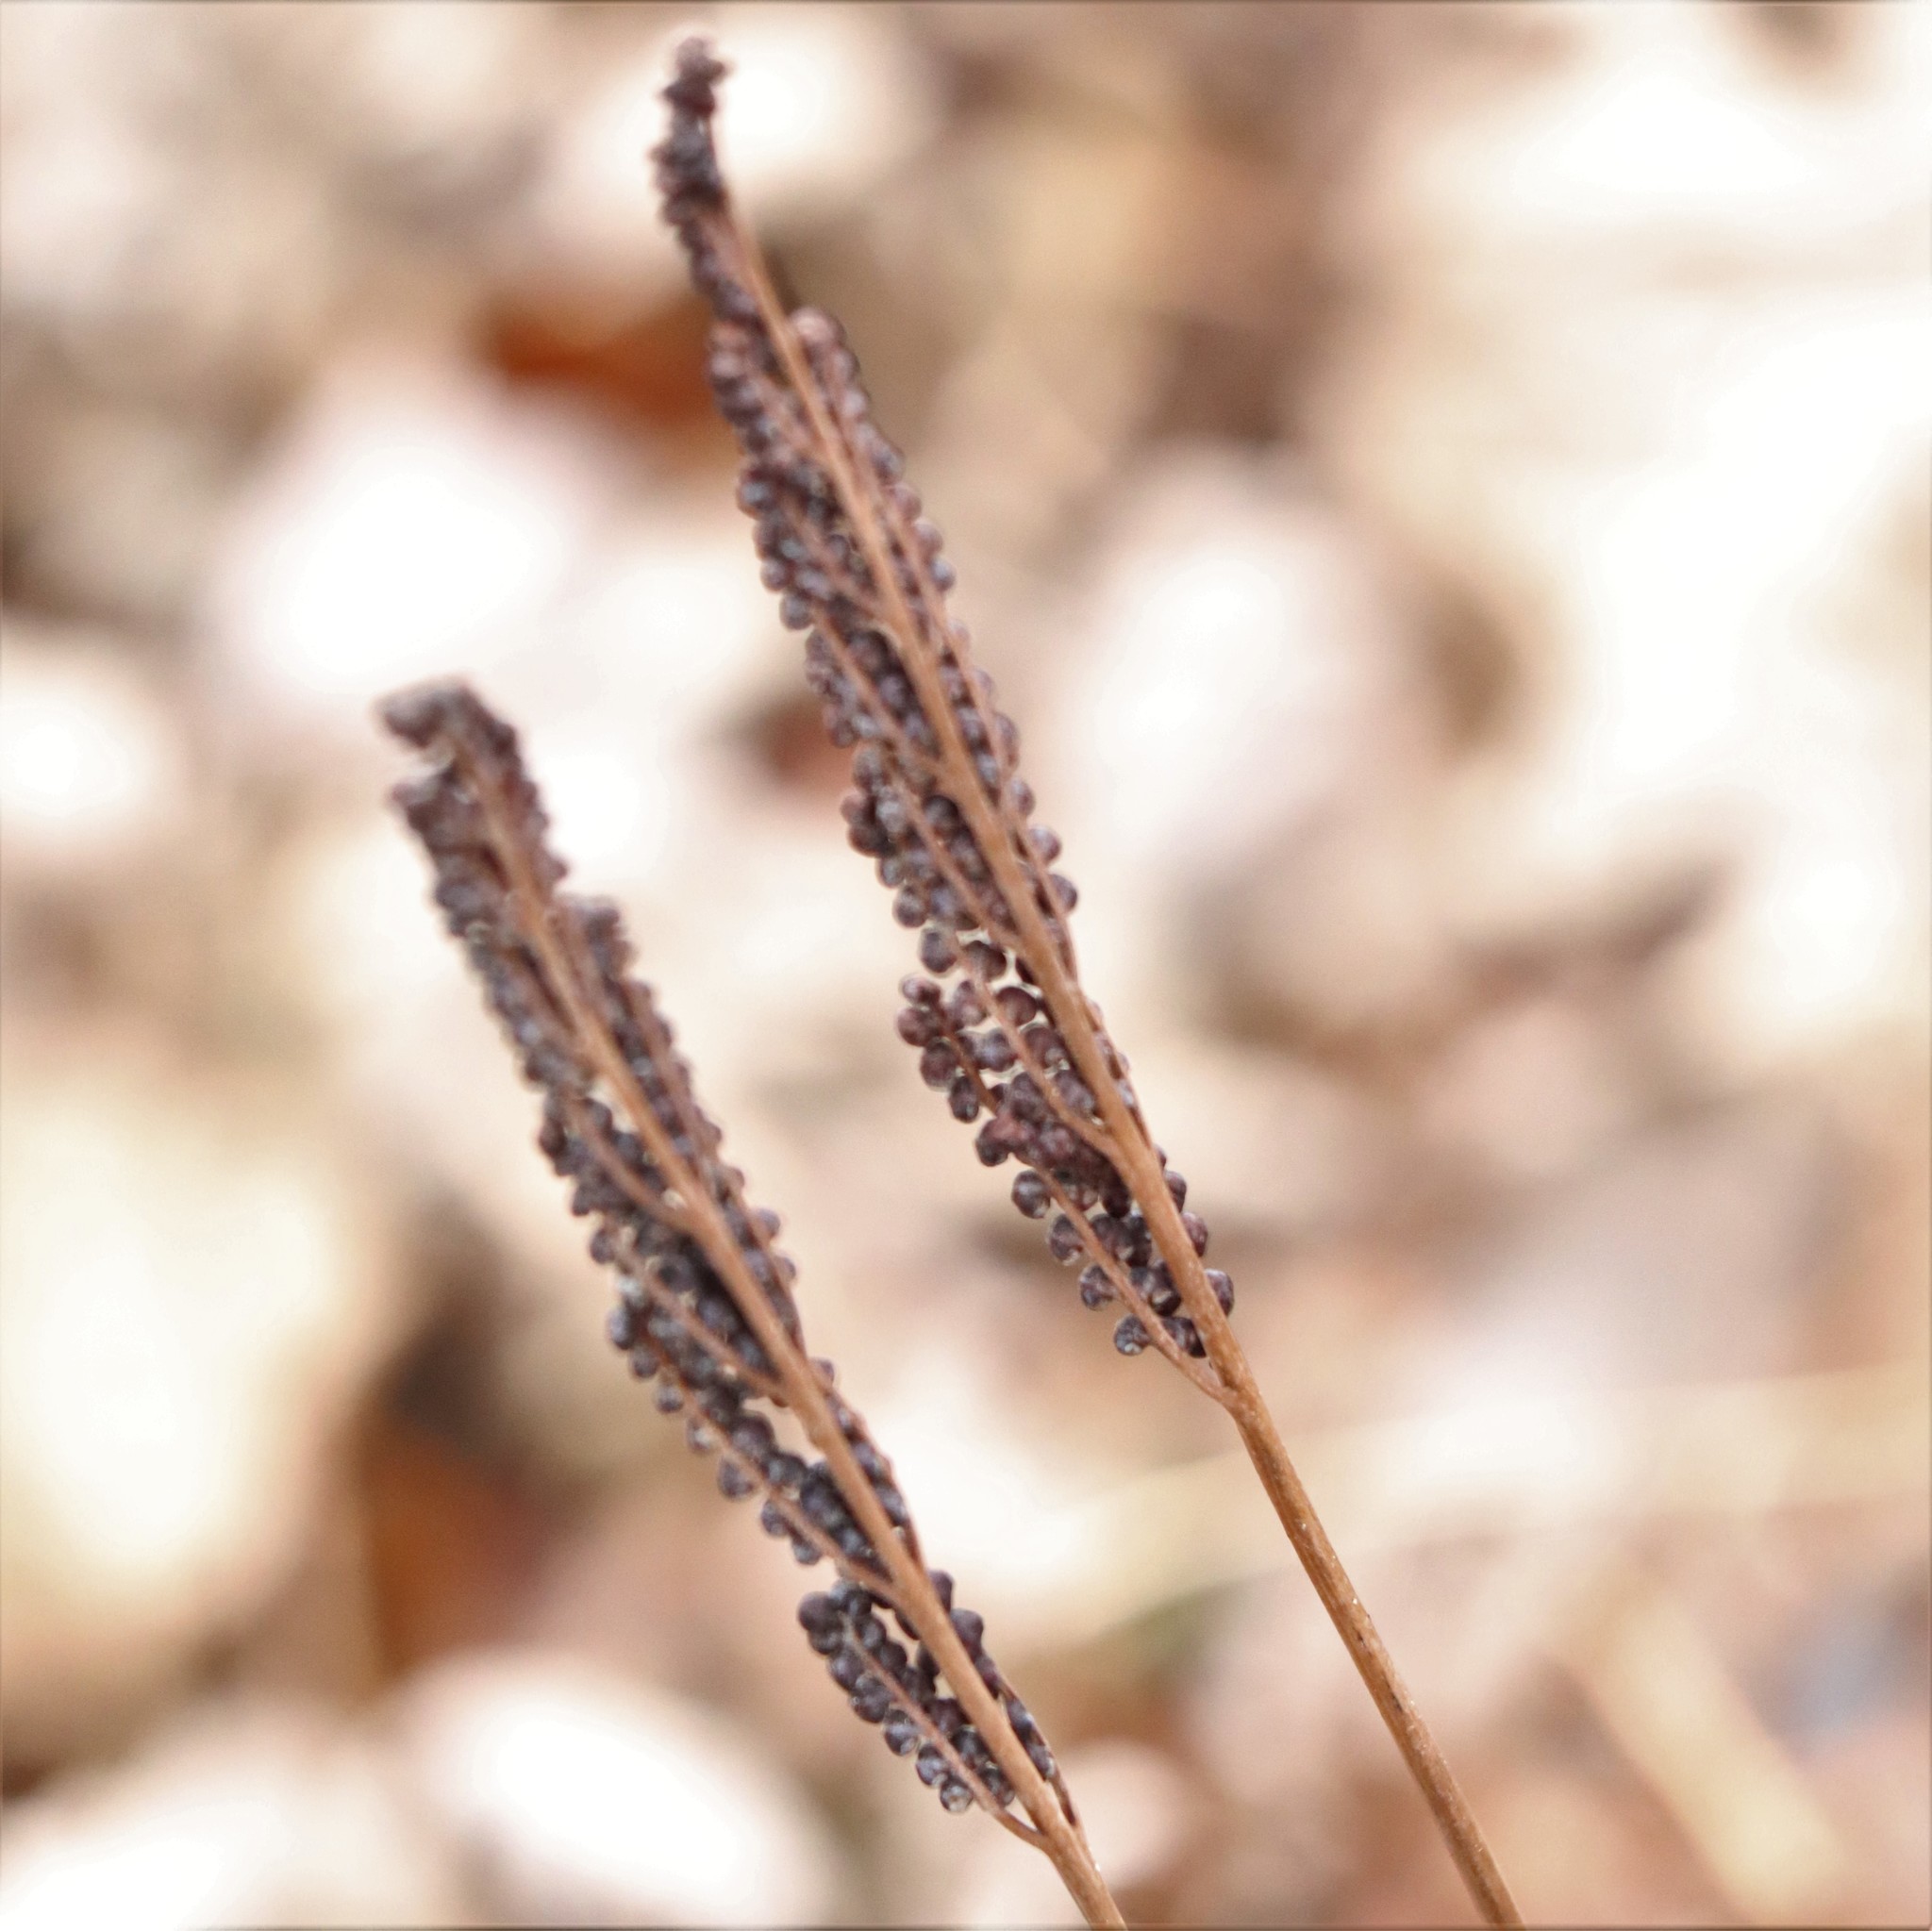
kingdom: Plantae
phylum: Tracheophyta
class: Polypodiopsida
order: Polypodiales
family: Onocleaceae
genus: Onoclea
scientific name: Onoclea sensibilis
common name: Sensitive fern
